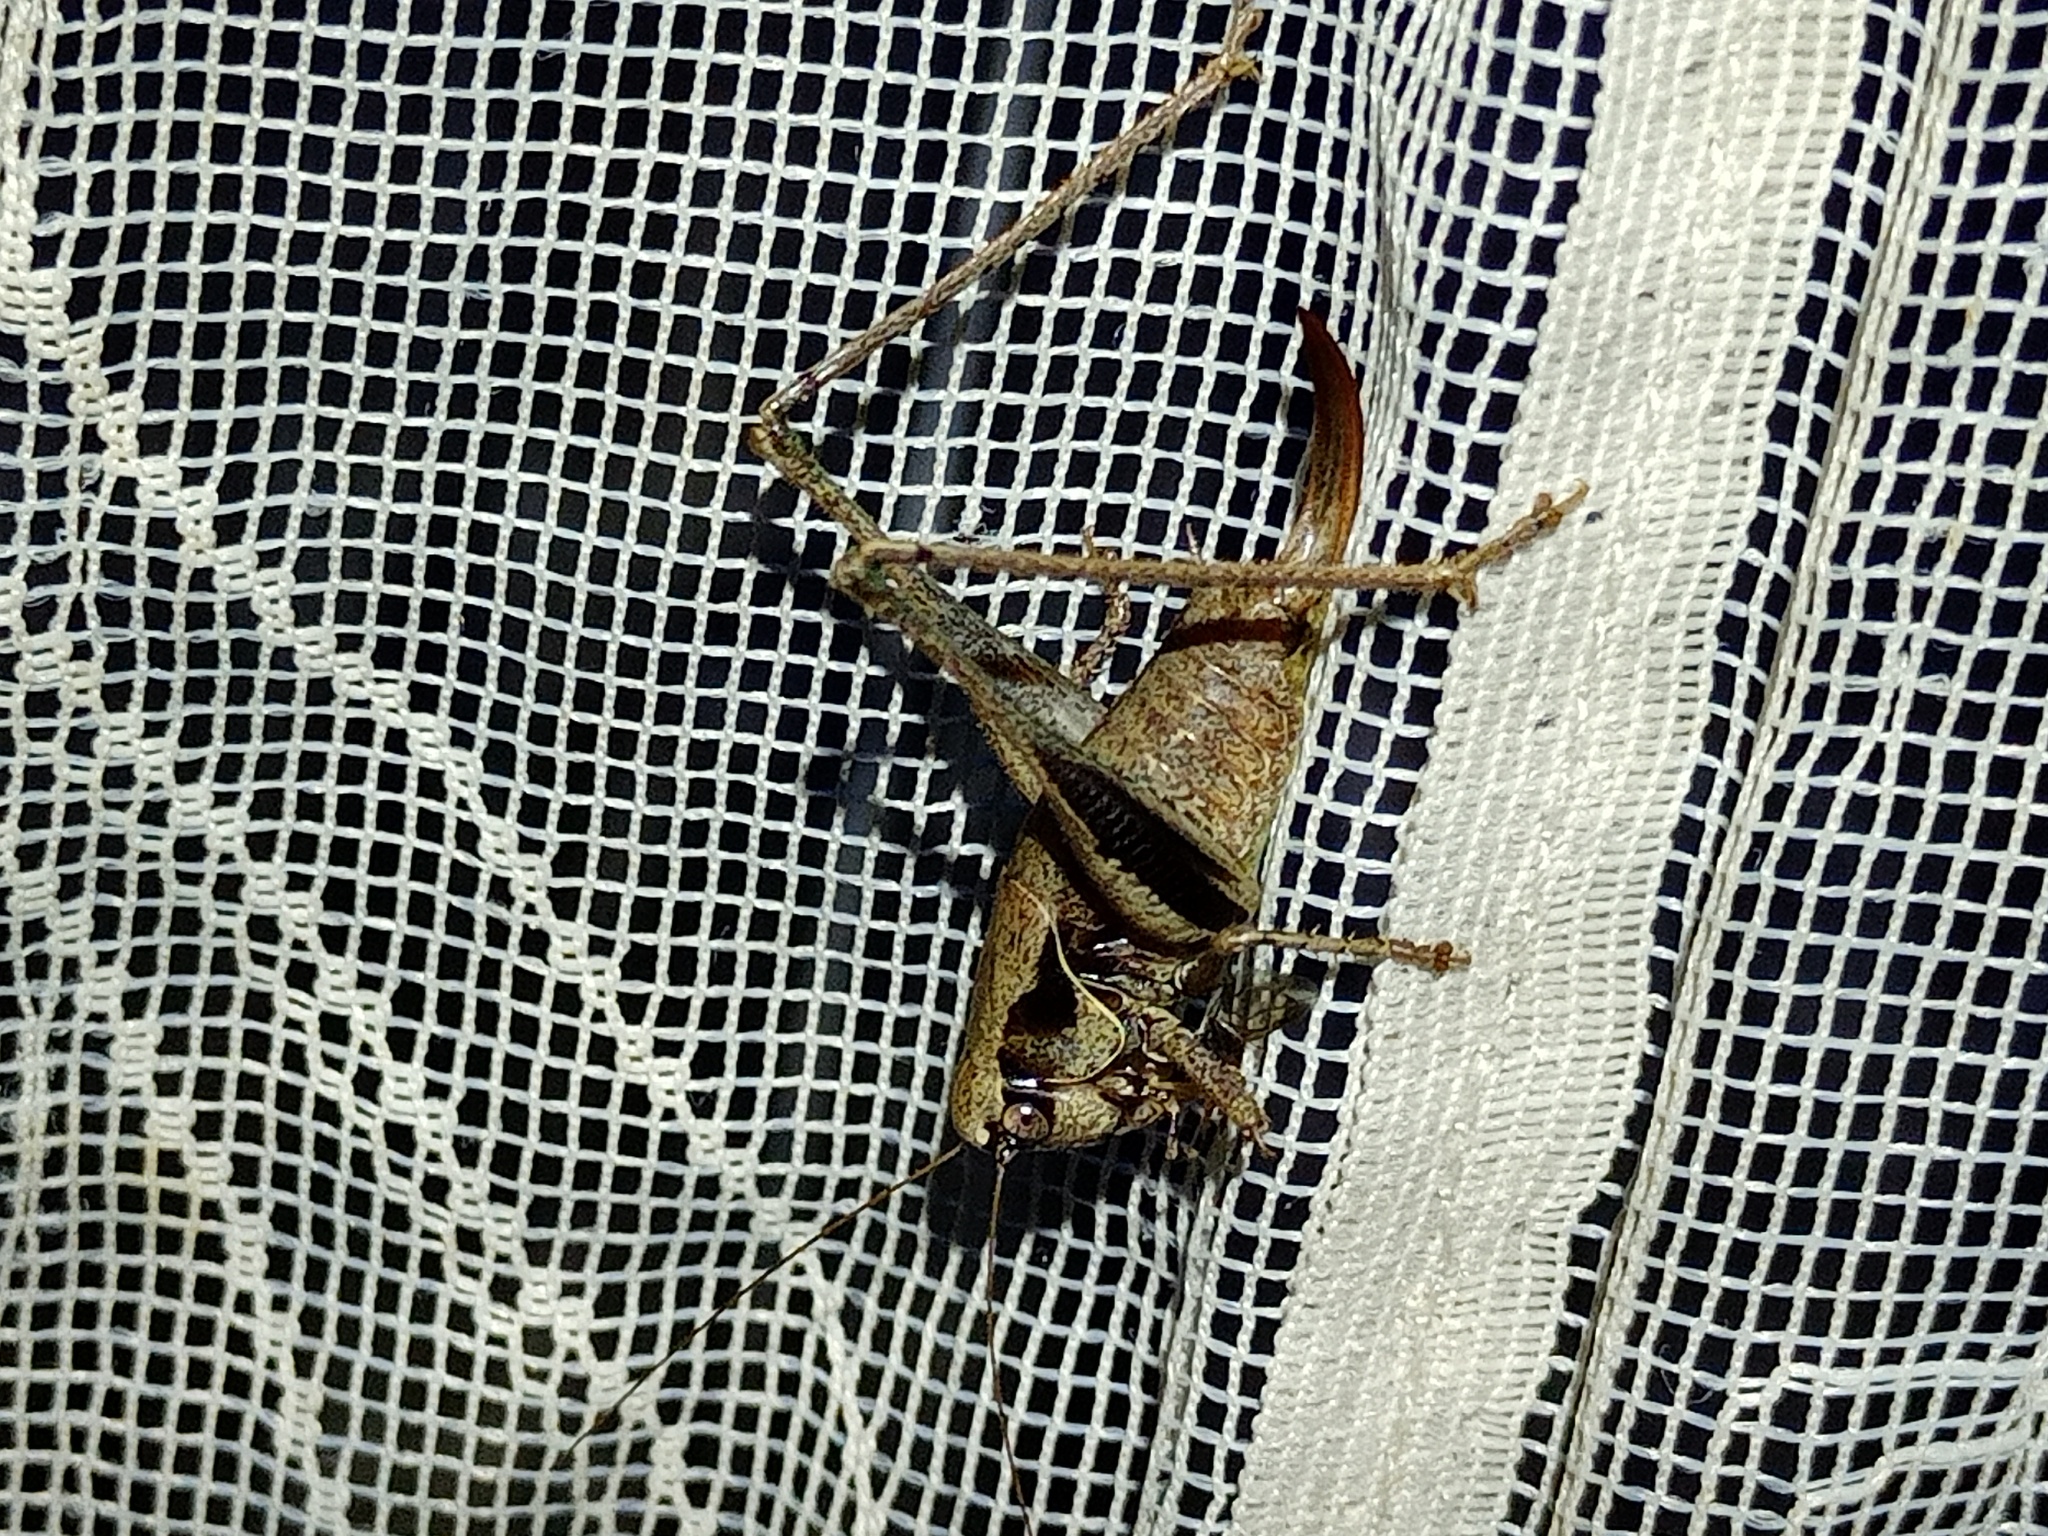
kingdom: Animalia
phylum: Arthropoda
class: Insecta
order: Orthoptera
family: Tettigoniidae
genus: Pholidoptera
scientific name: Pholidoptera griseoaptera
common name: Dark bush-cricket
